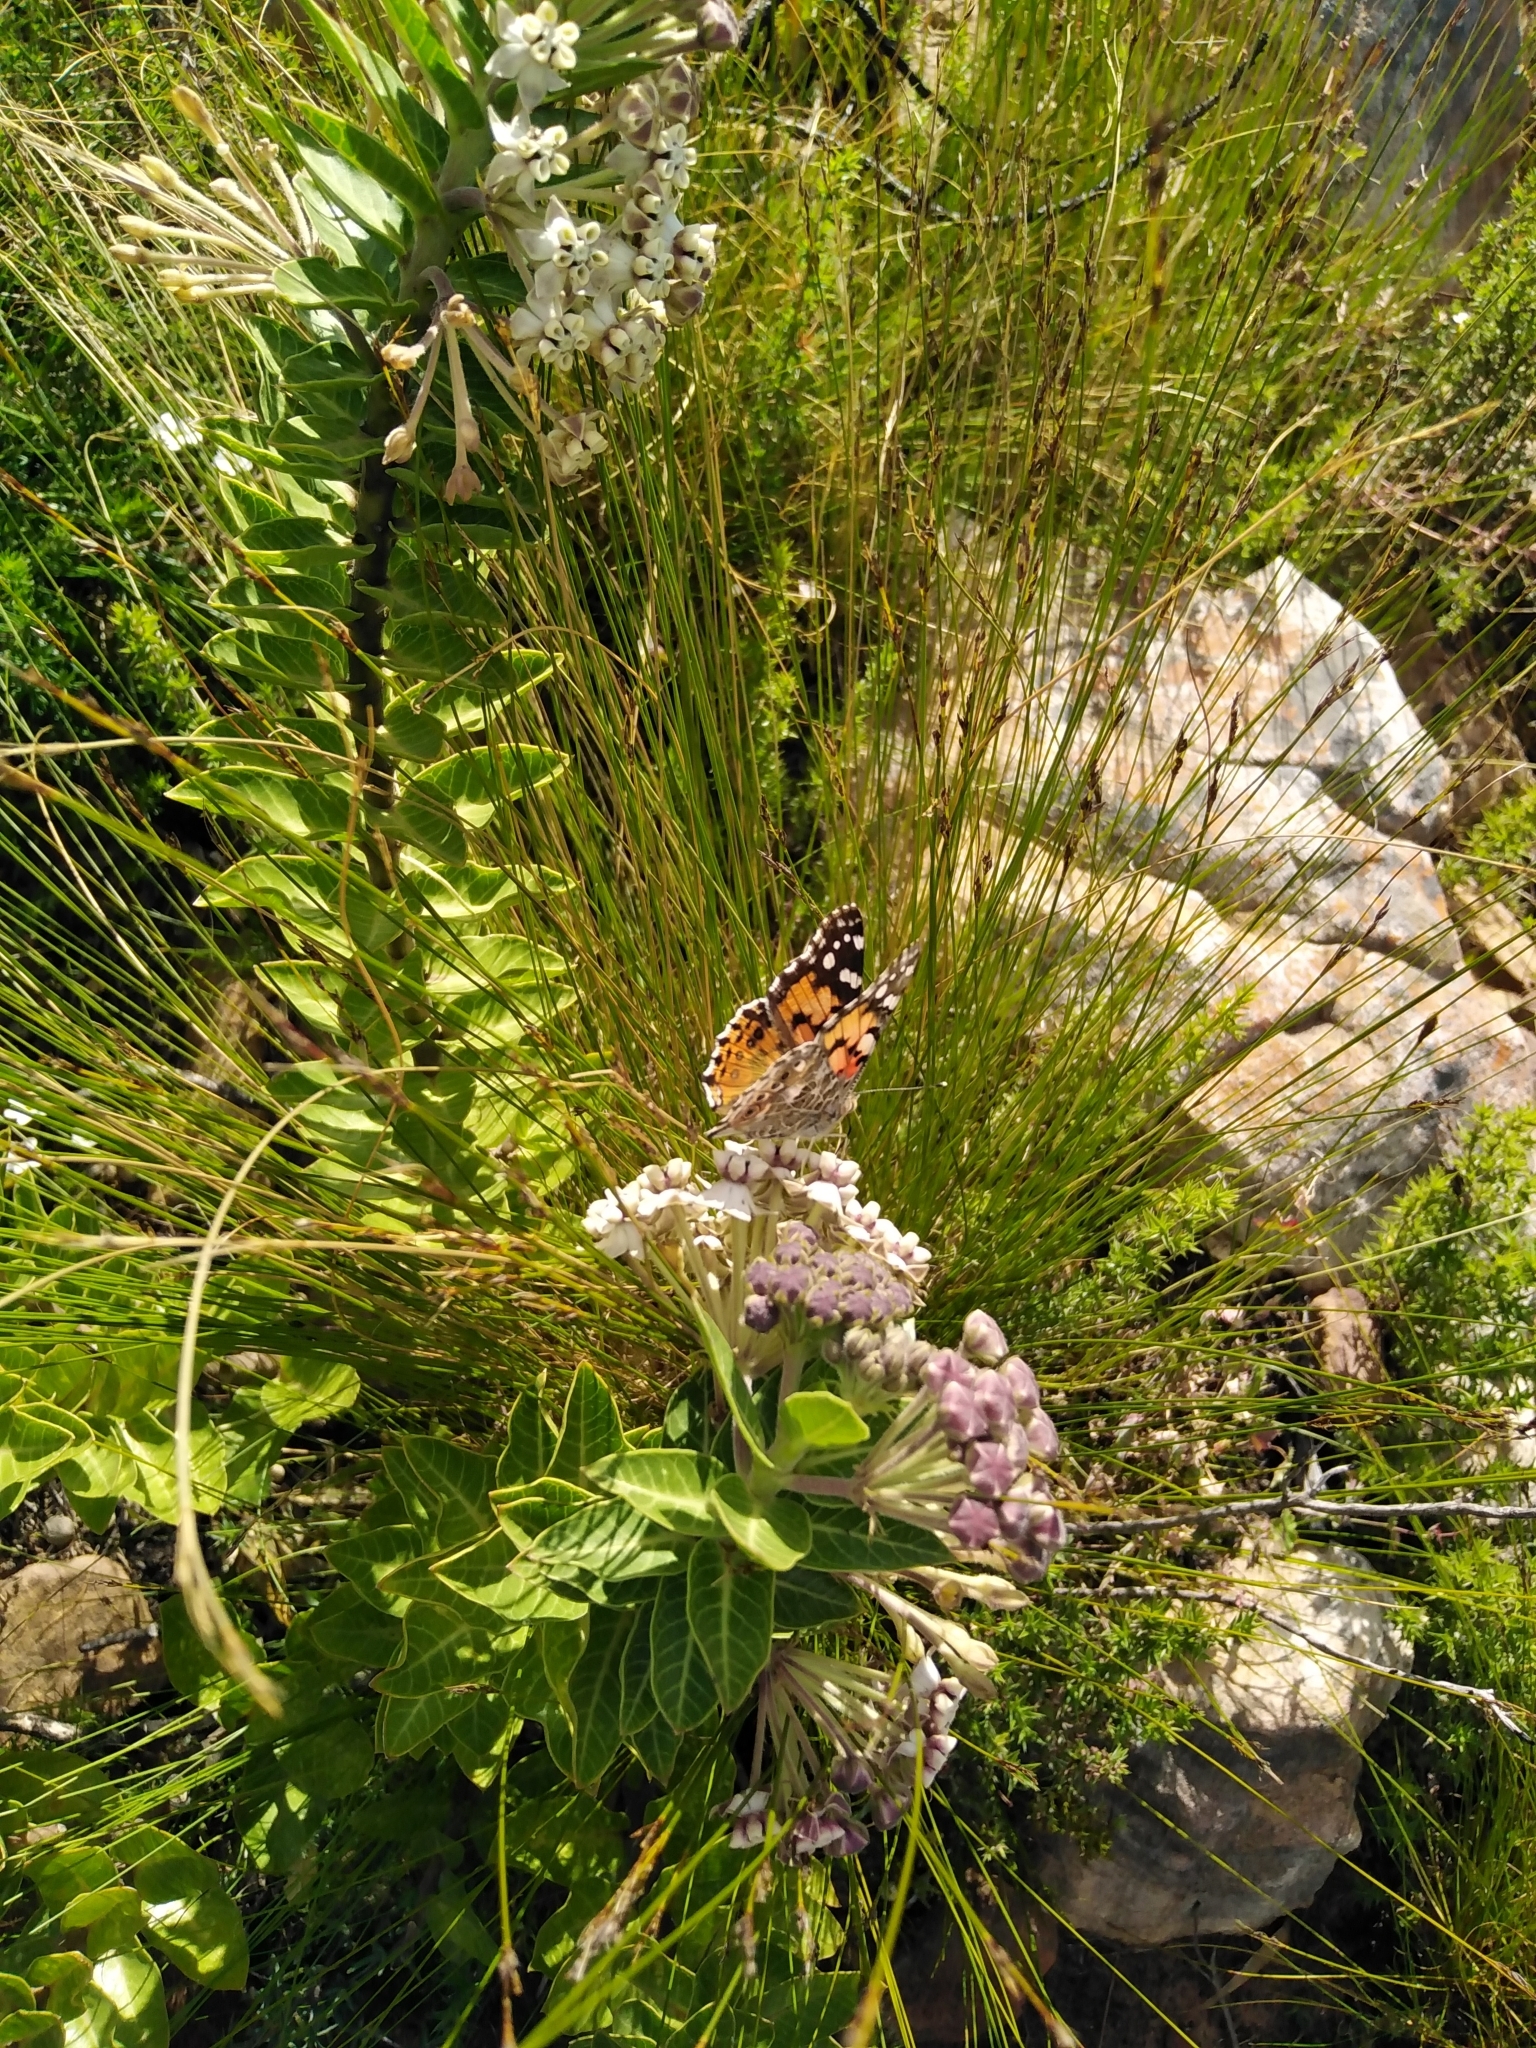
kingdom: Animalia
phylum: Arthropoda
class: Insecta
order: Lepidoptera
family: Nymphalidae
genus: Vanessa
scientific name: Vanessa cardui
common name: Painted lady
